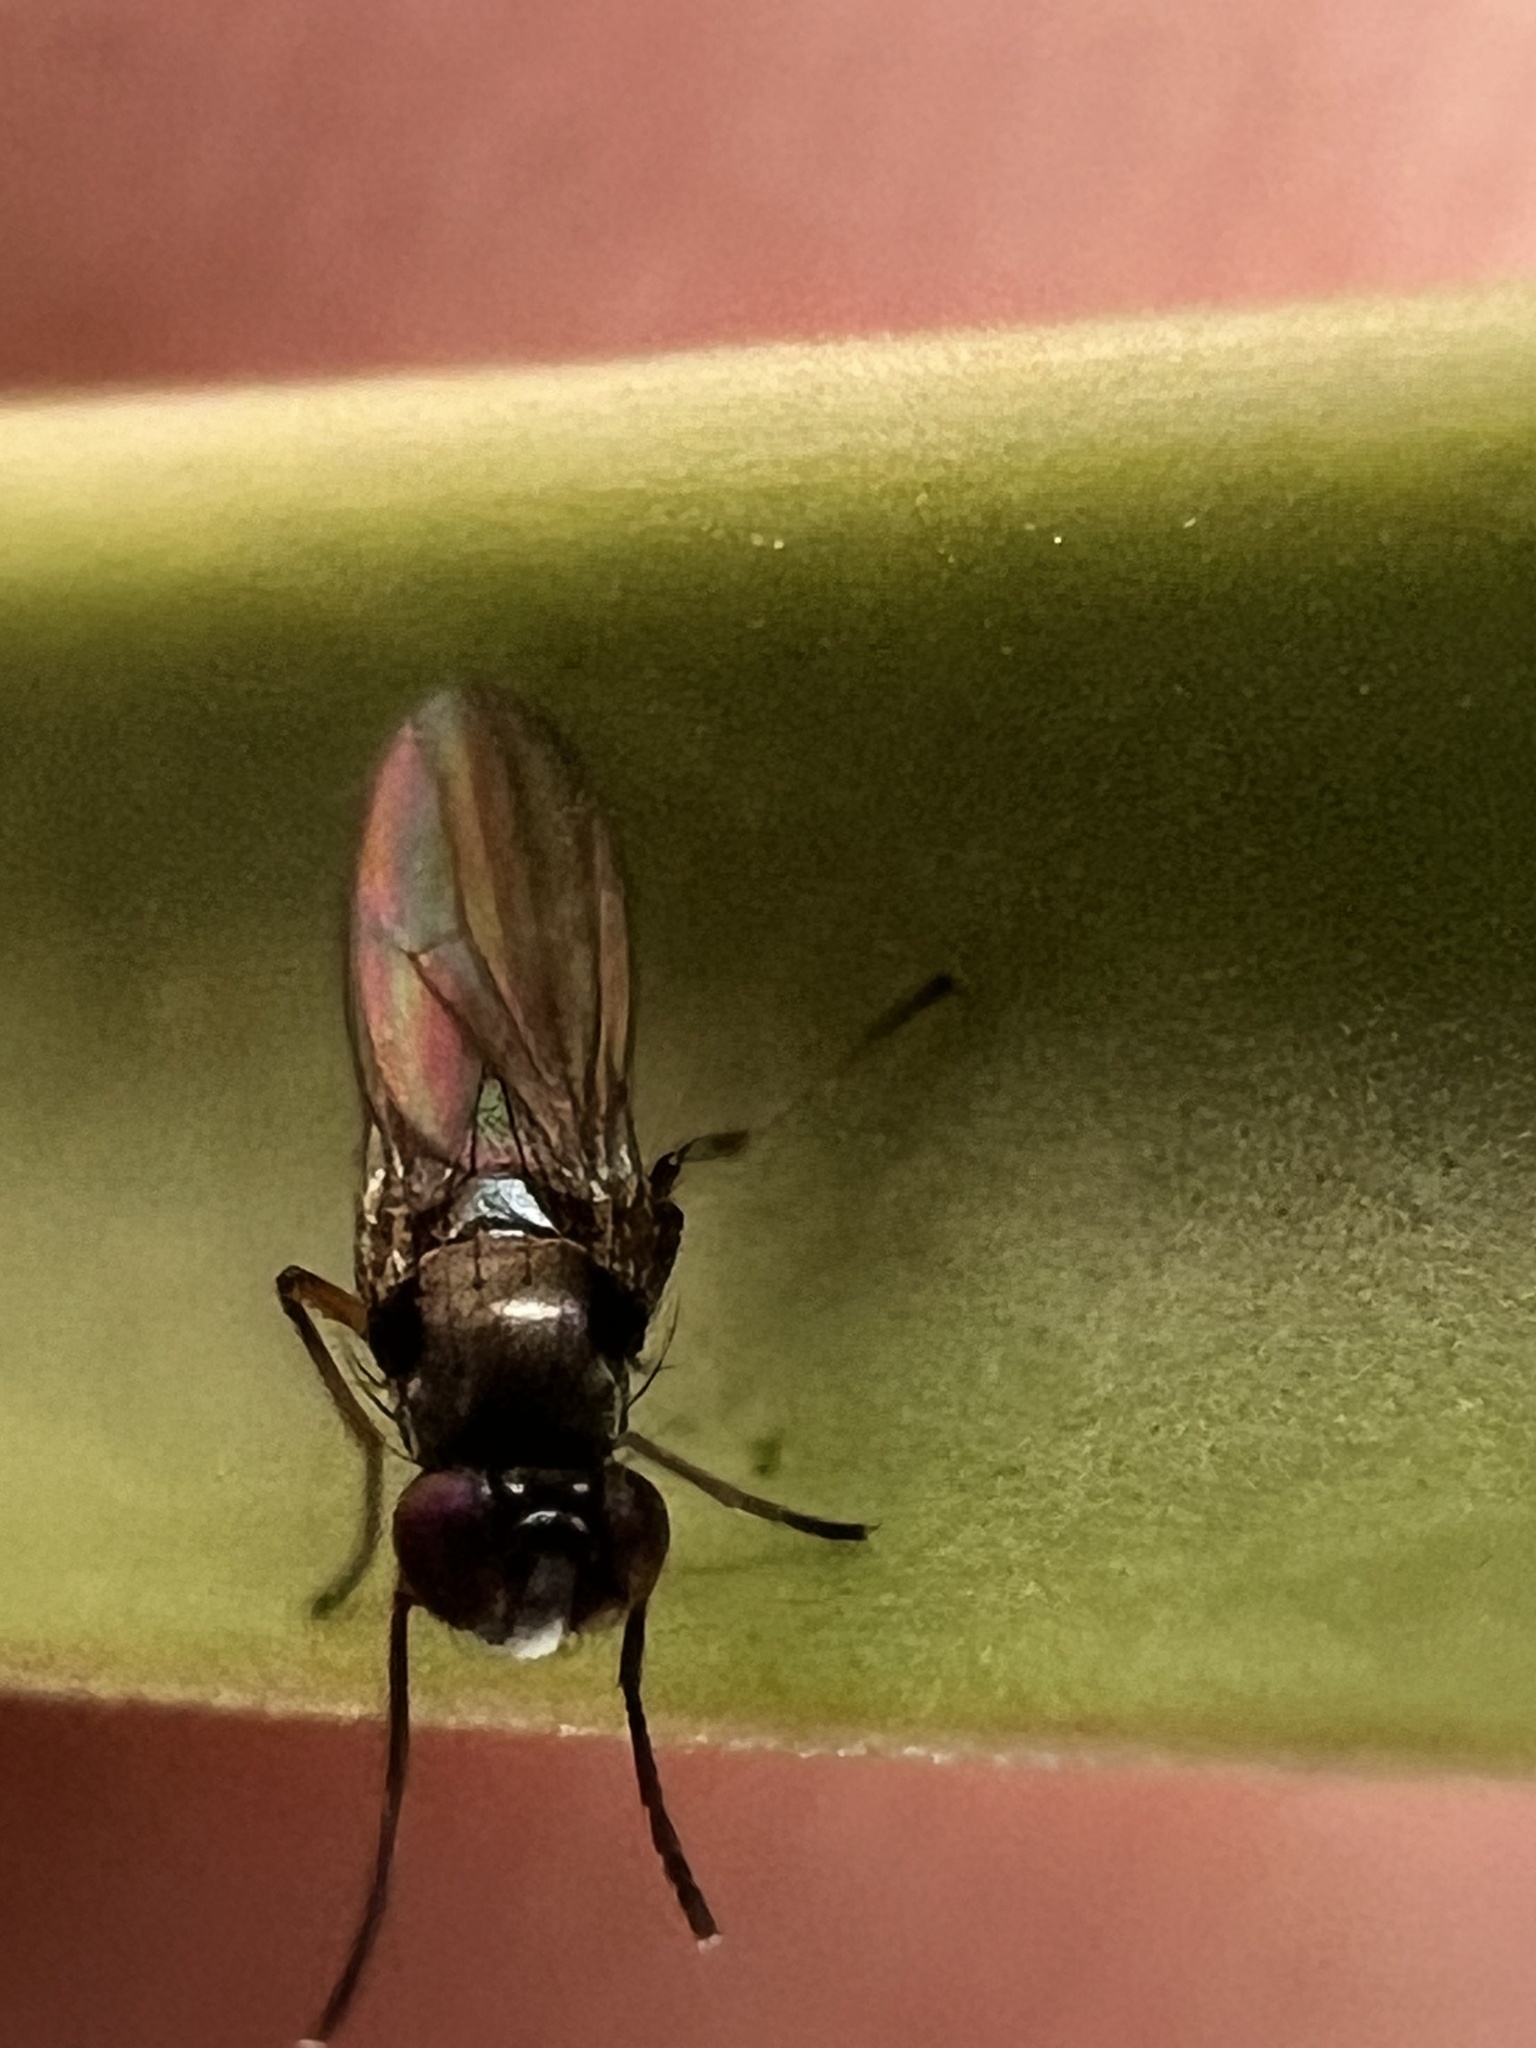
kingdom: Animalia
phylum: Arthropoda
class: Insecta
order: Diptera
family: Ephydridae
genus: Hydrellia
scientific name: Hydrellia tritici
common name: Shore fly
